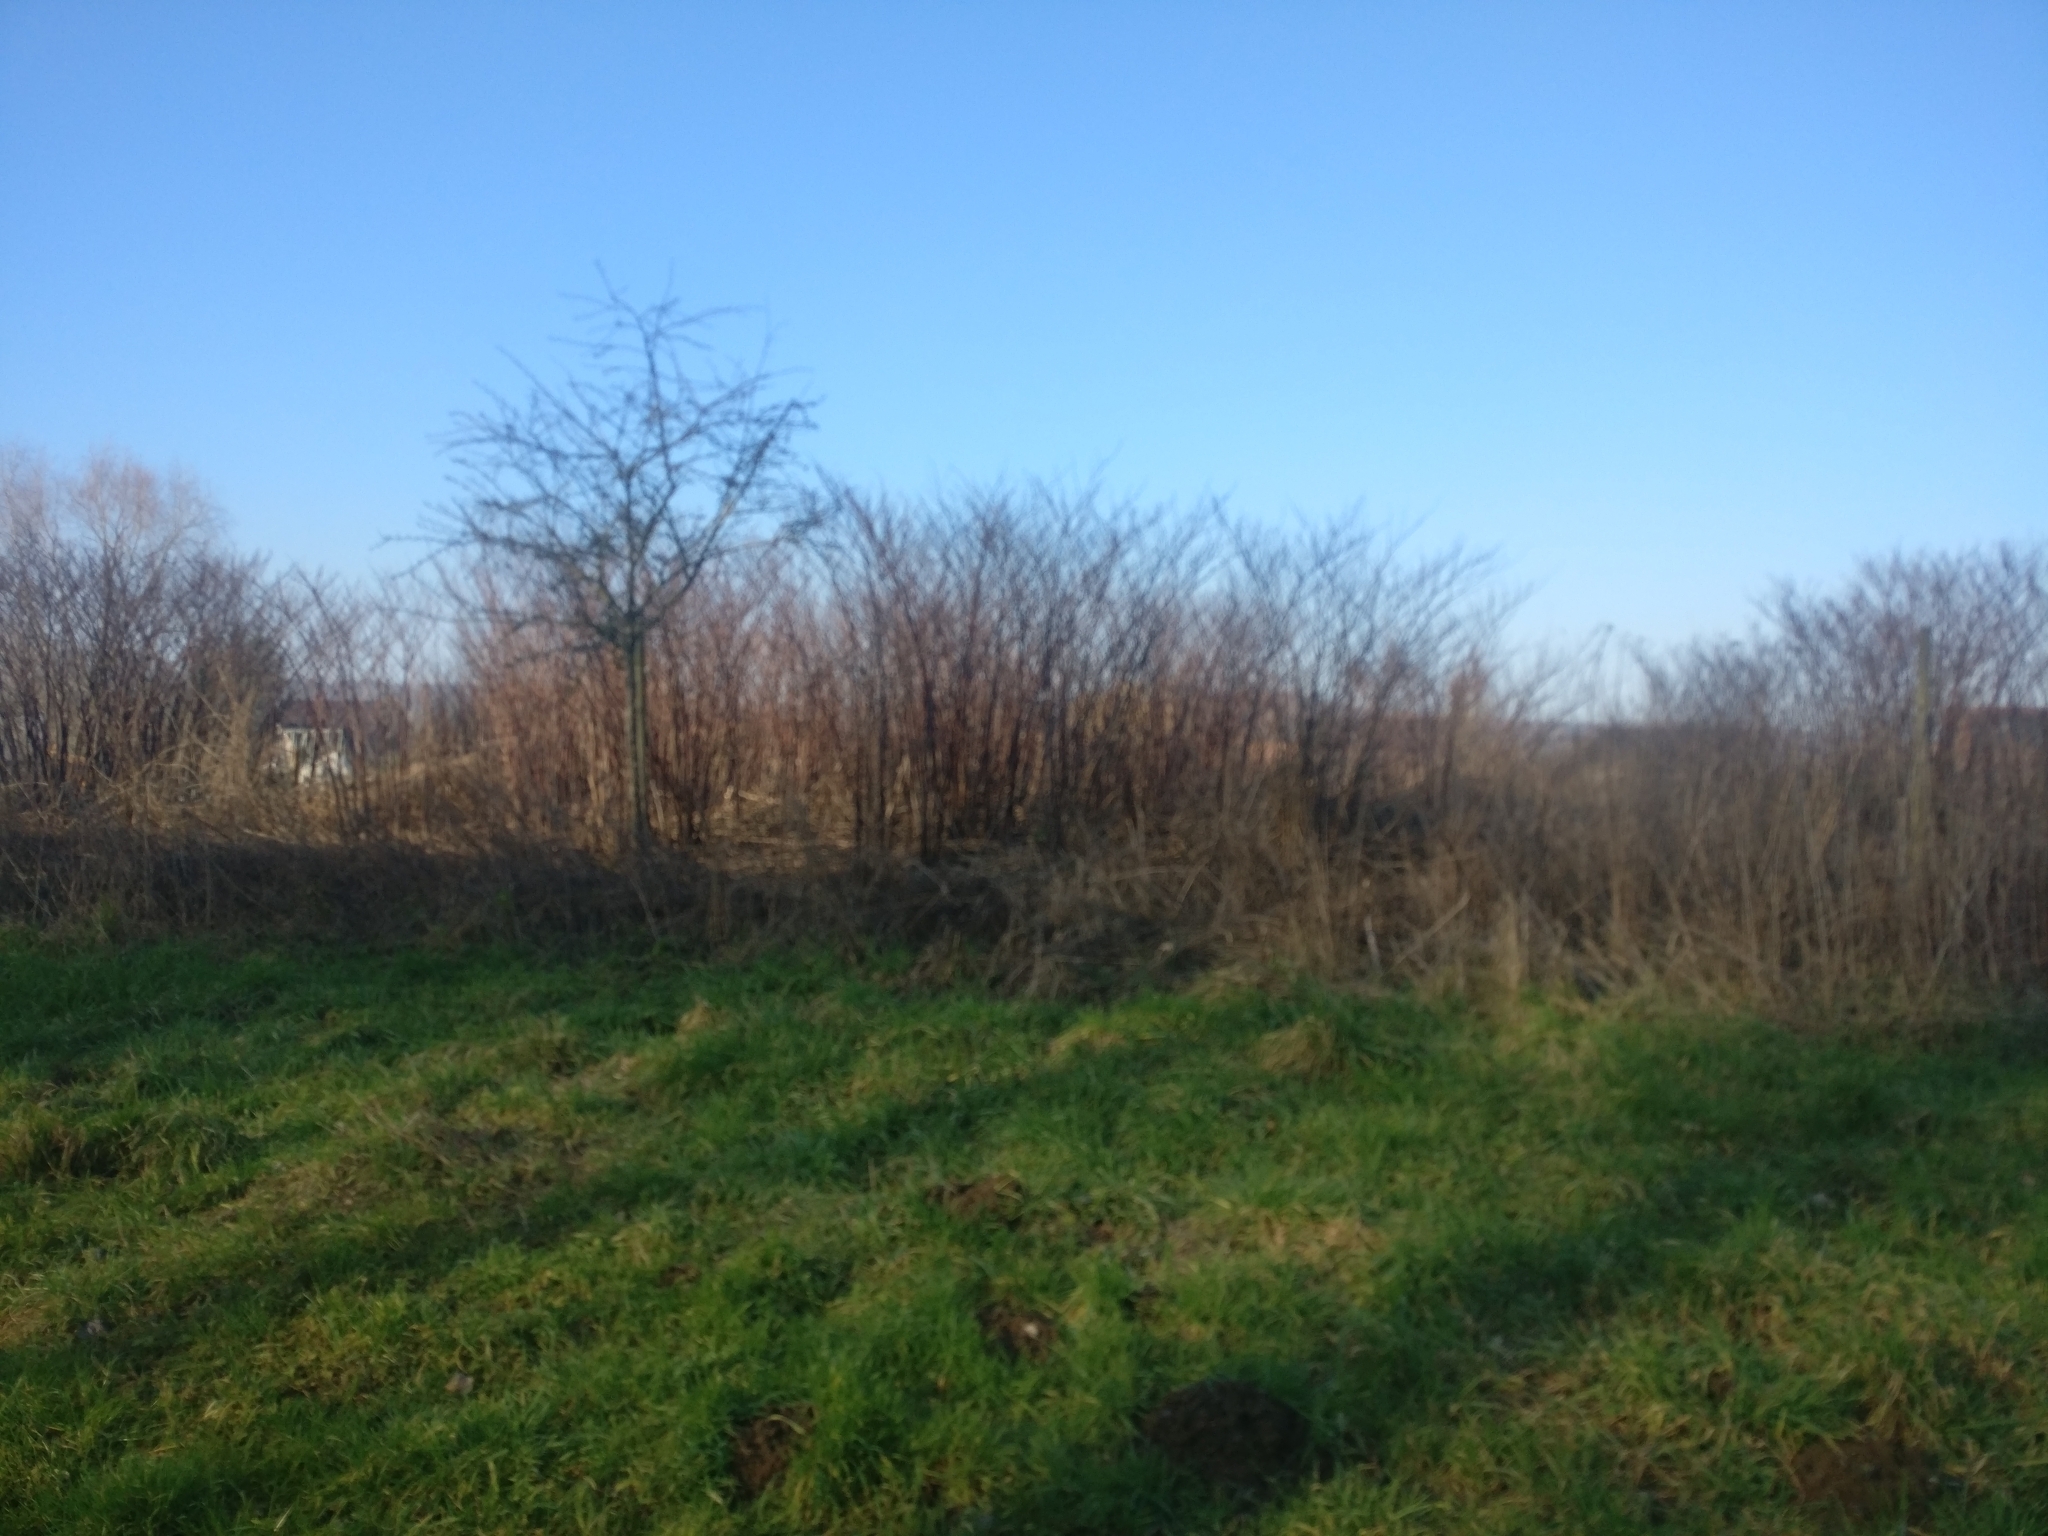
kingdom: Plantae
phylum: Tracheophyta
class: Magnoliopsida
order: Caryophyllales
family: Polygonaceae
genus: Reynoutria
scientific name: Reynoutria
